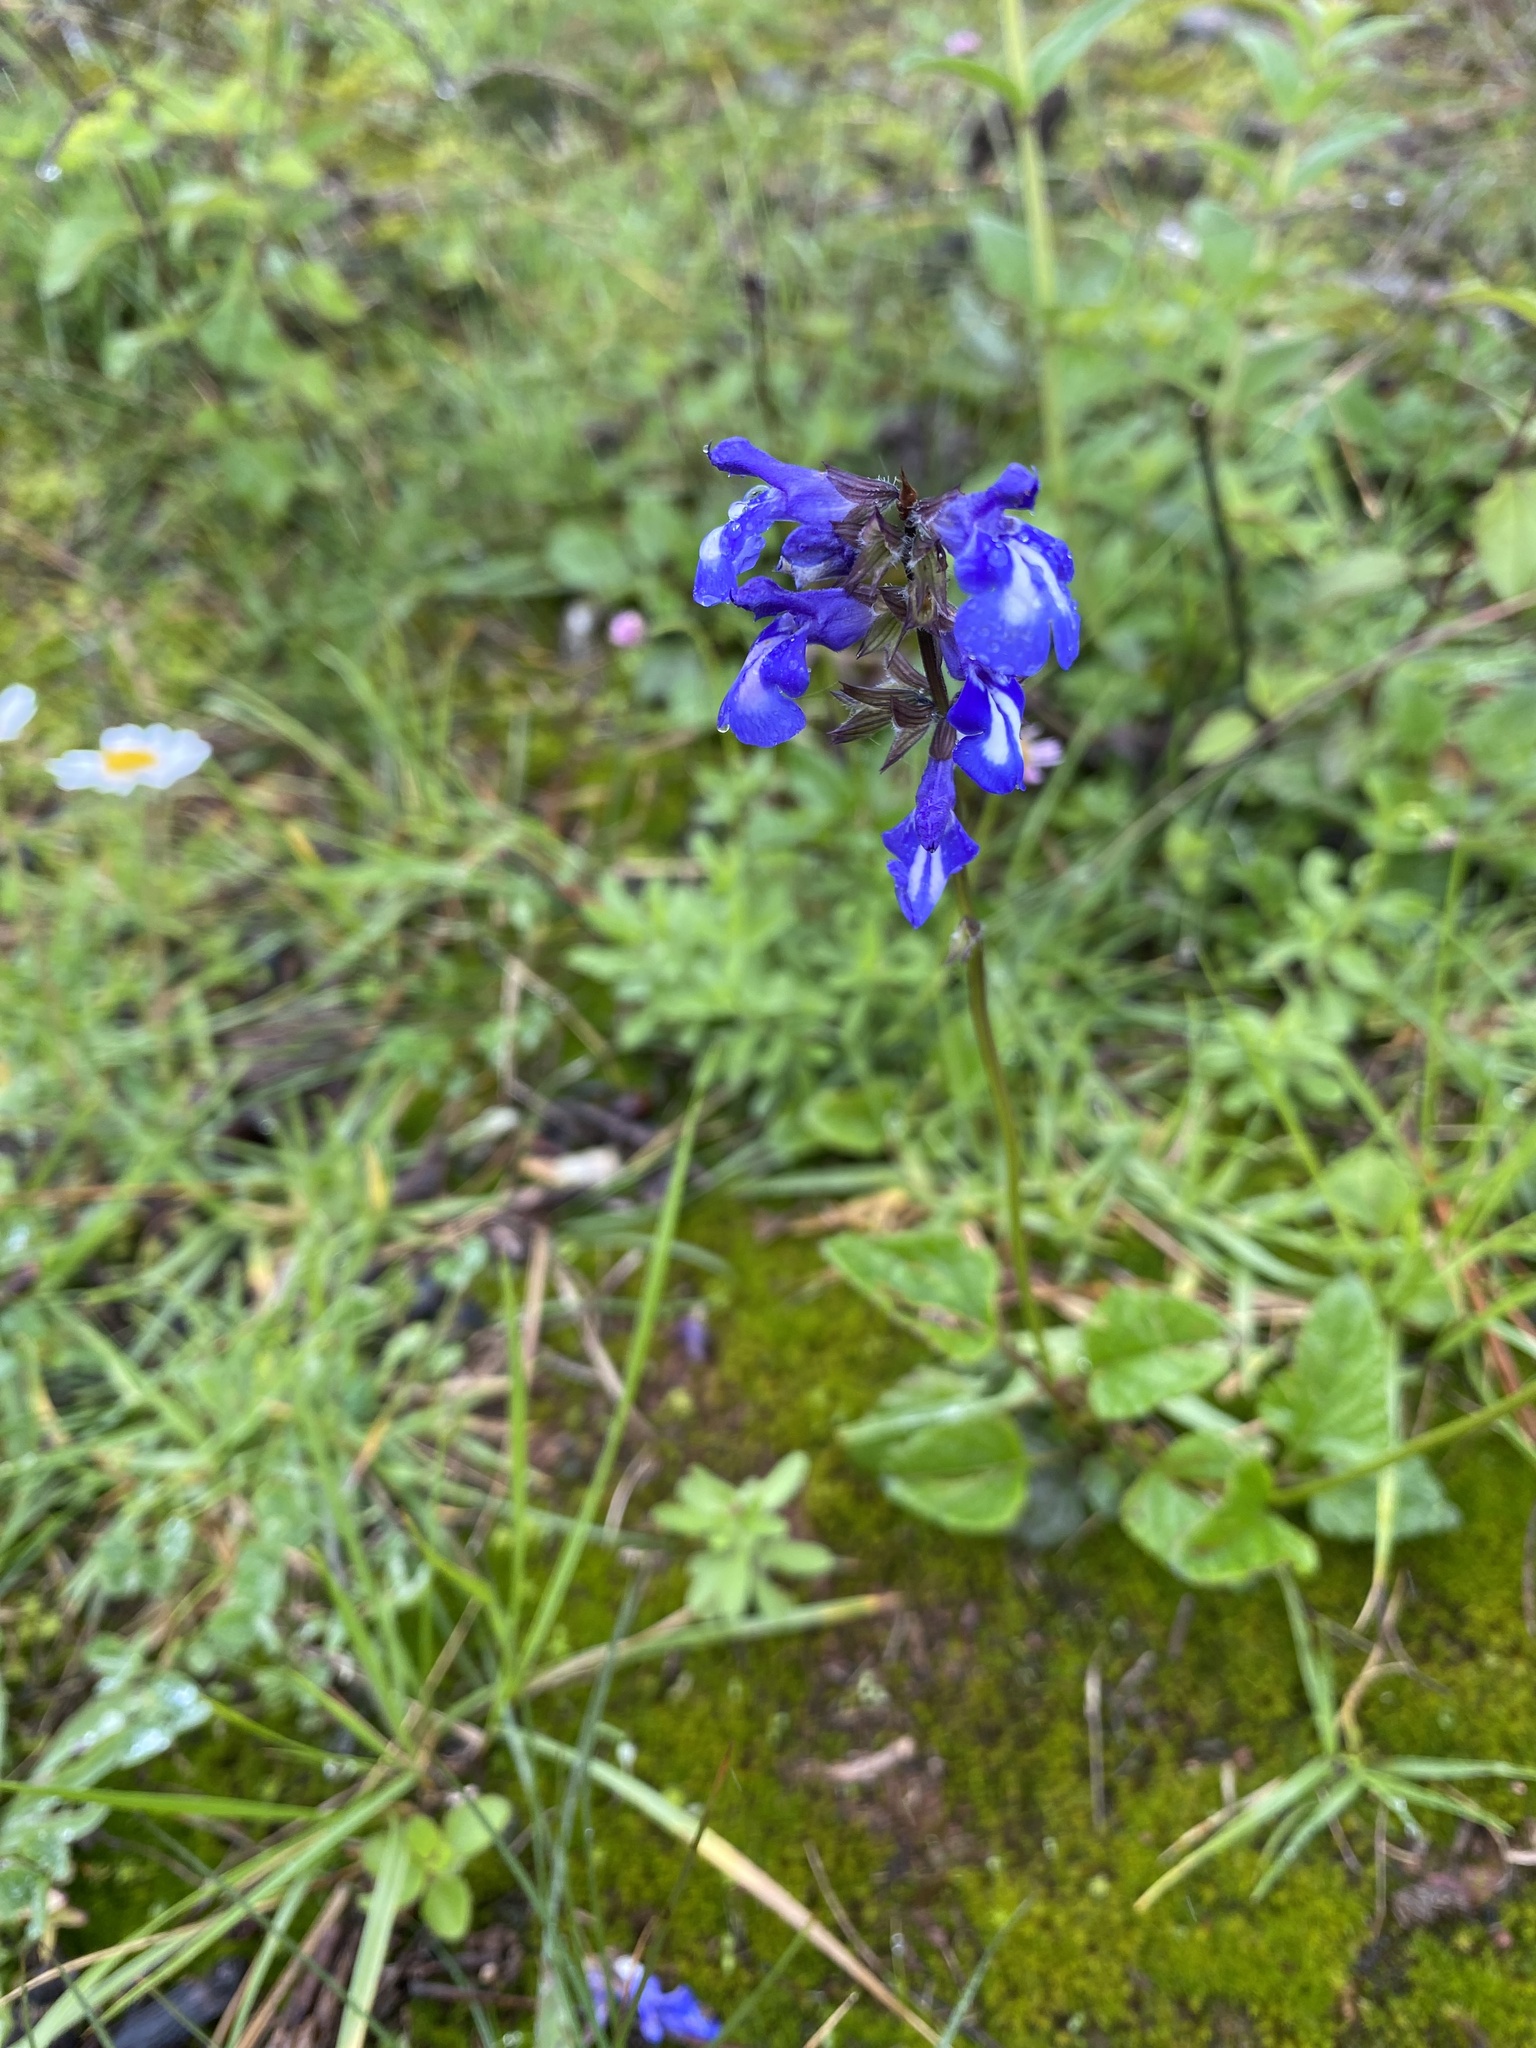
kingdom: Plantae
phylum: Tracheophyta
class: Magnoliopsida
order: Lamiales
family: Lamiaceae
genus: Salvia
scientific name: Salvia prunelloides
